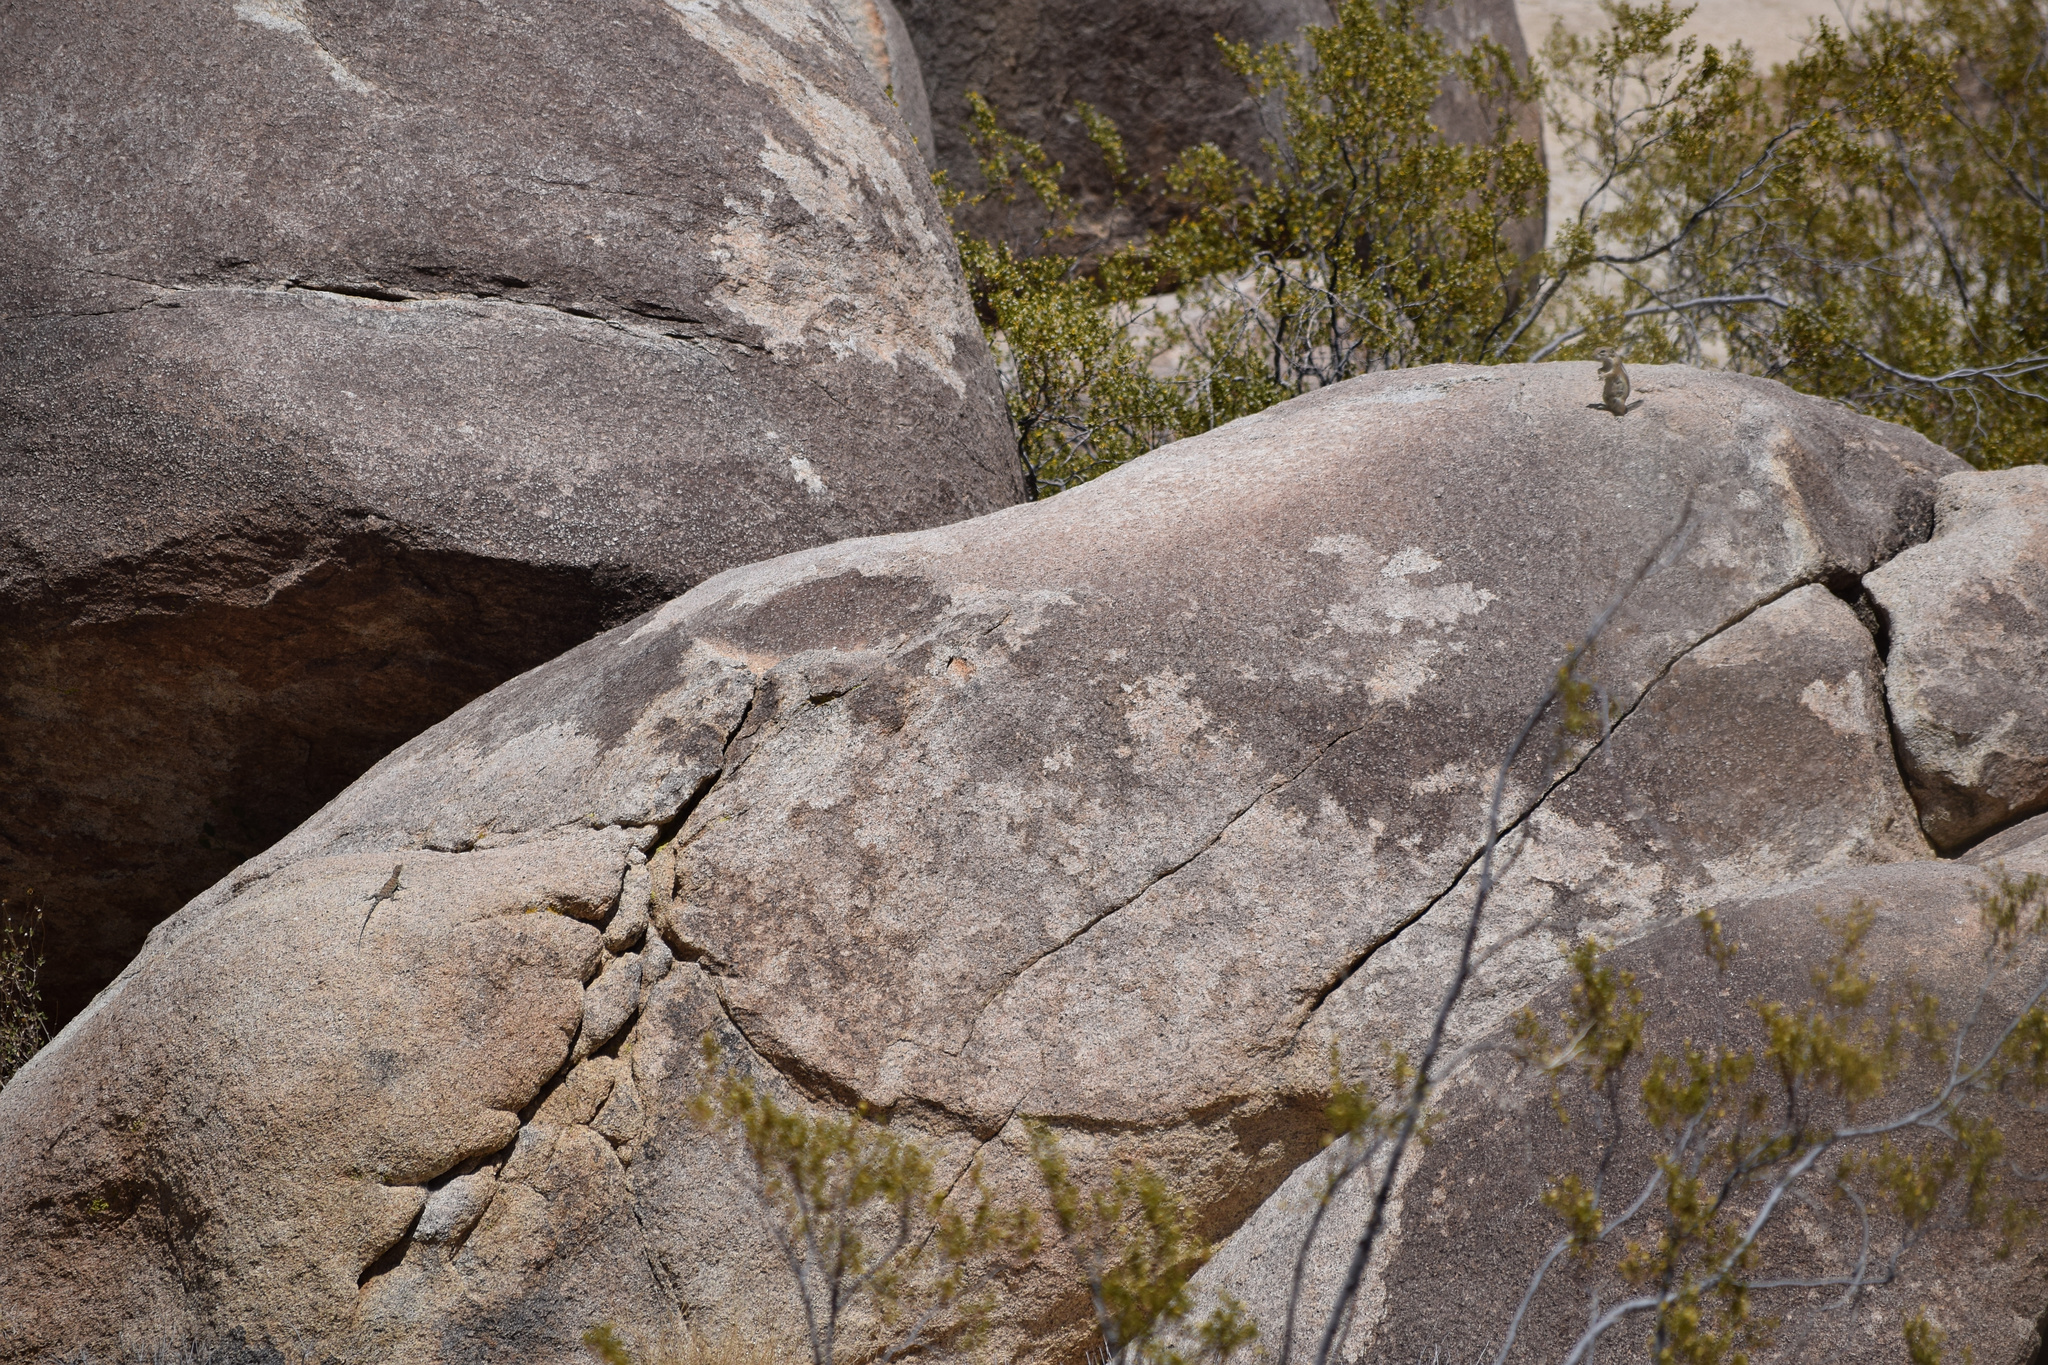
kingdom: Animalia
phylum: Chordata
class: Mammalia
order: Rodentia
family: Sciuridae
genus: Ammospermophilus
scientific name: Ammospermophilus leucurus
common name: White-tailed antelope squirrel
